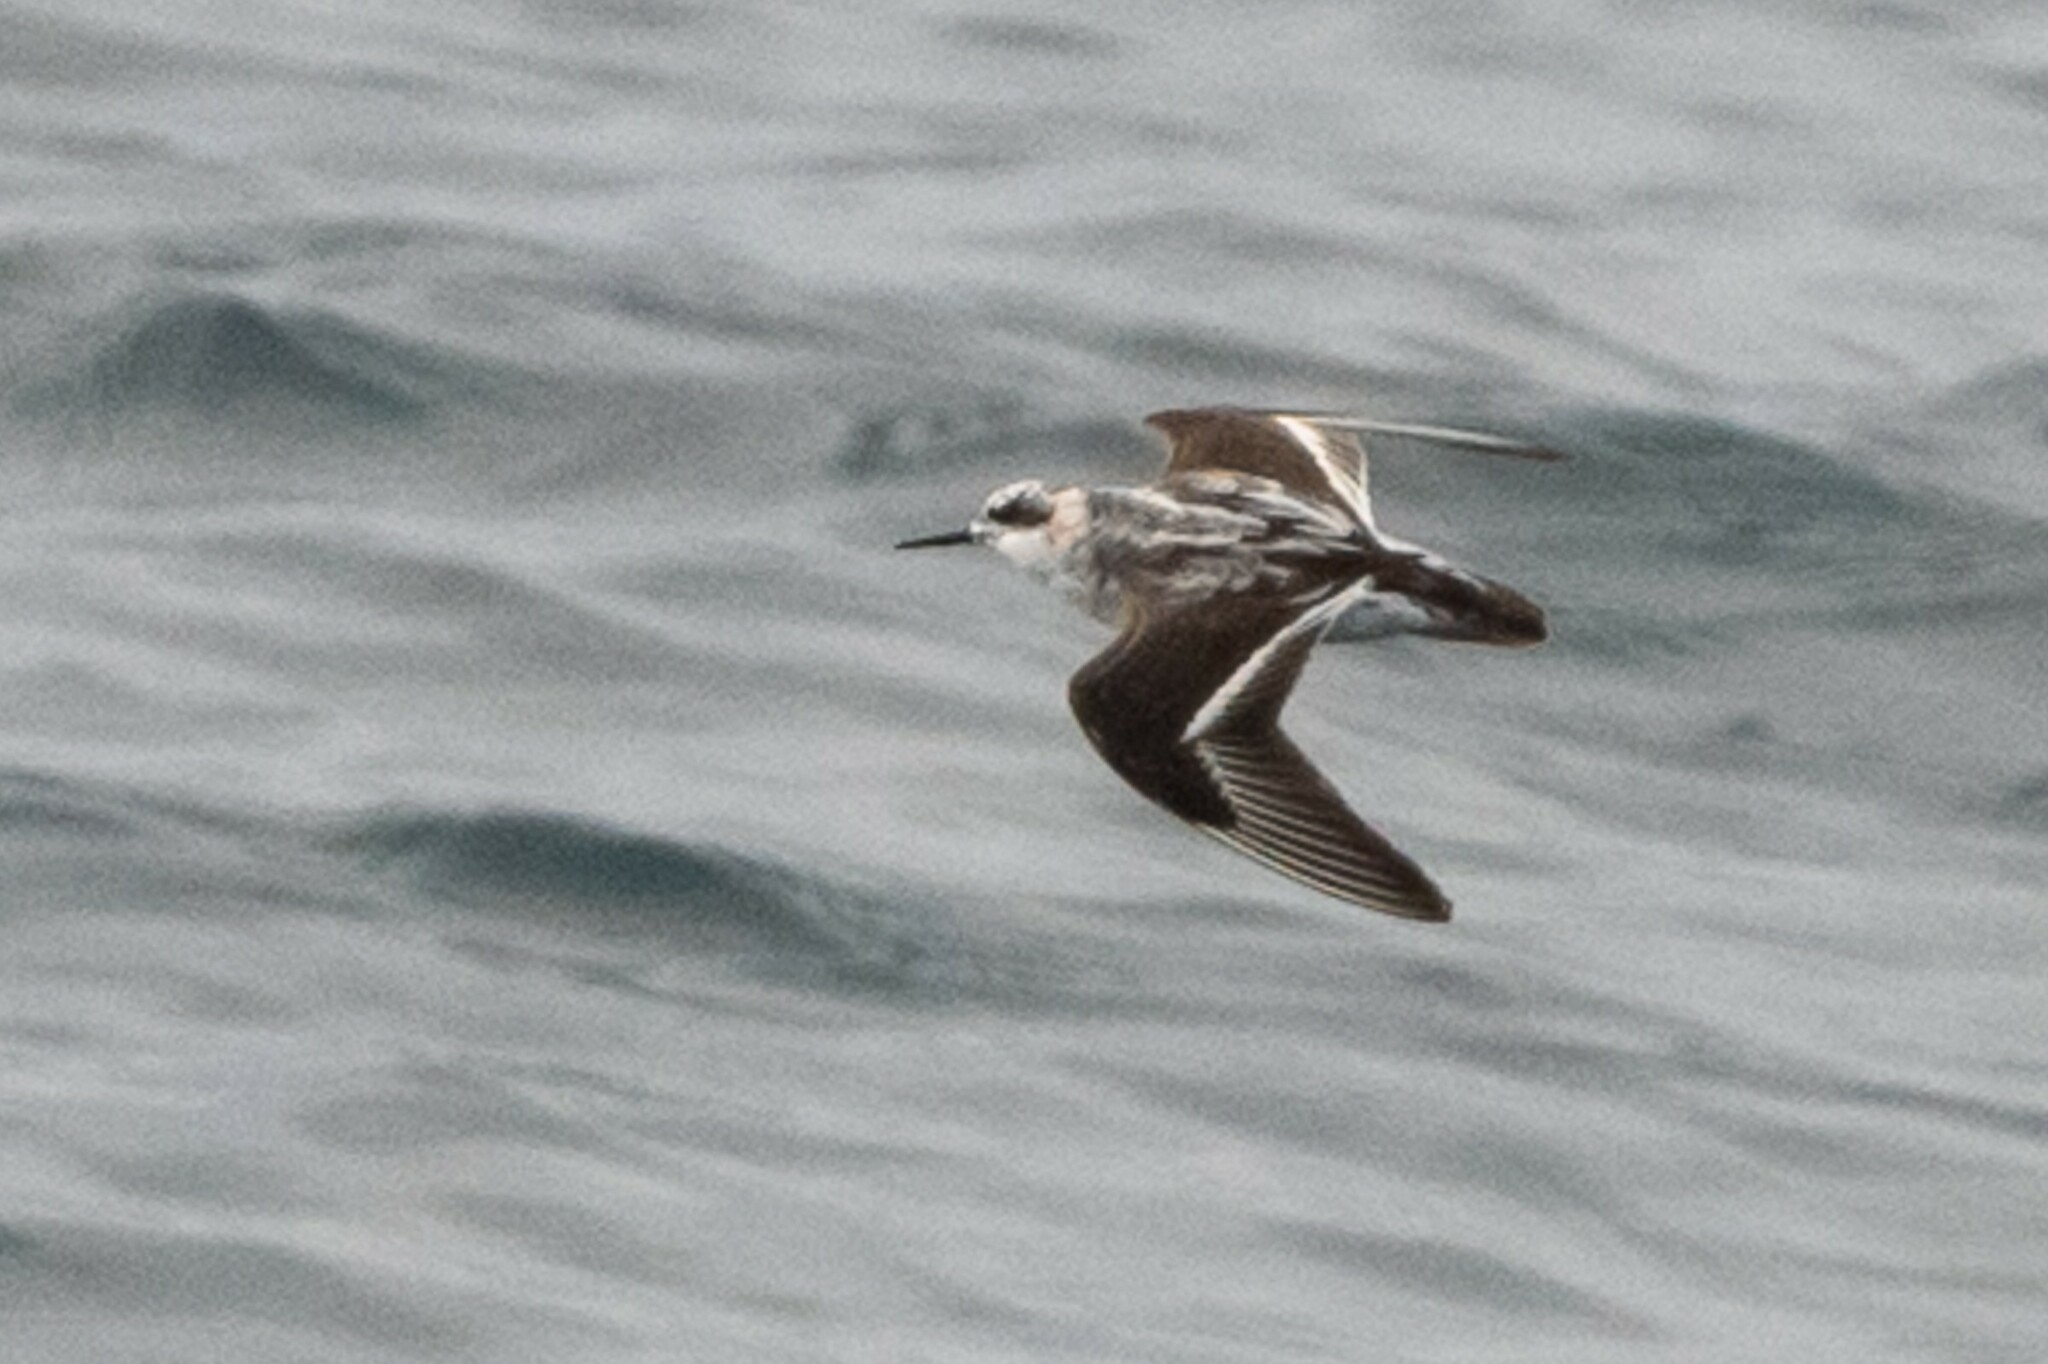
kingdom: Animalia
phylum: Chordata
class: Aves
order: Charadriiformes
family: Scolopacidae
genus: Phalaropus
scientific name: Phalaropus lobatus
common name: Red-necked phalarope
